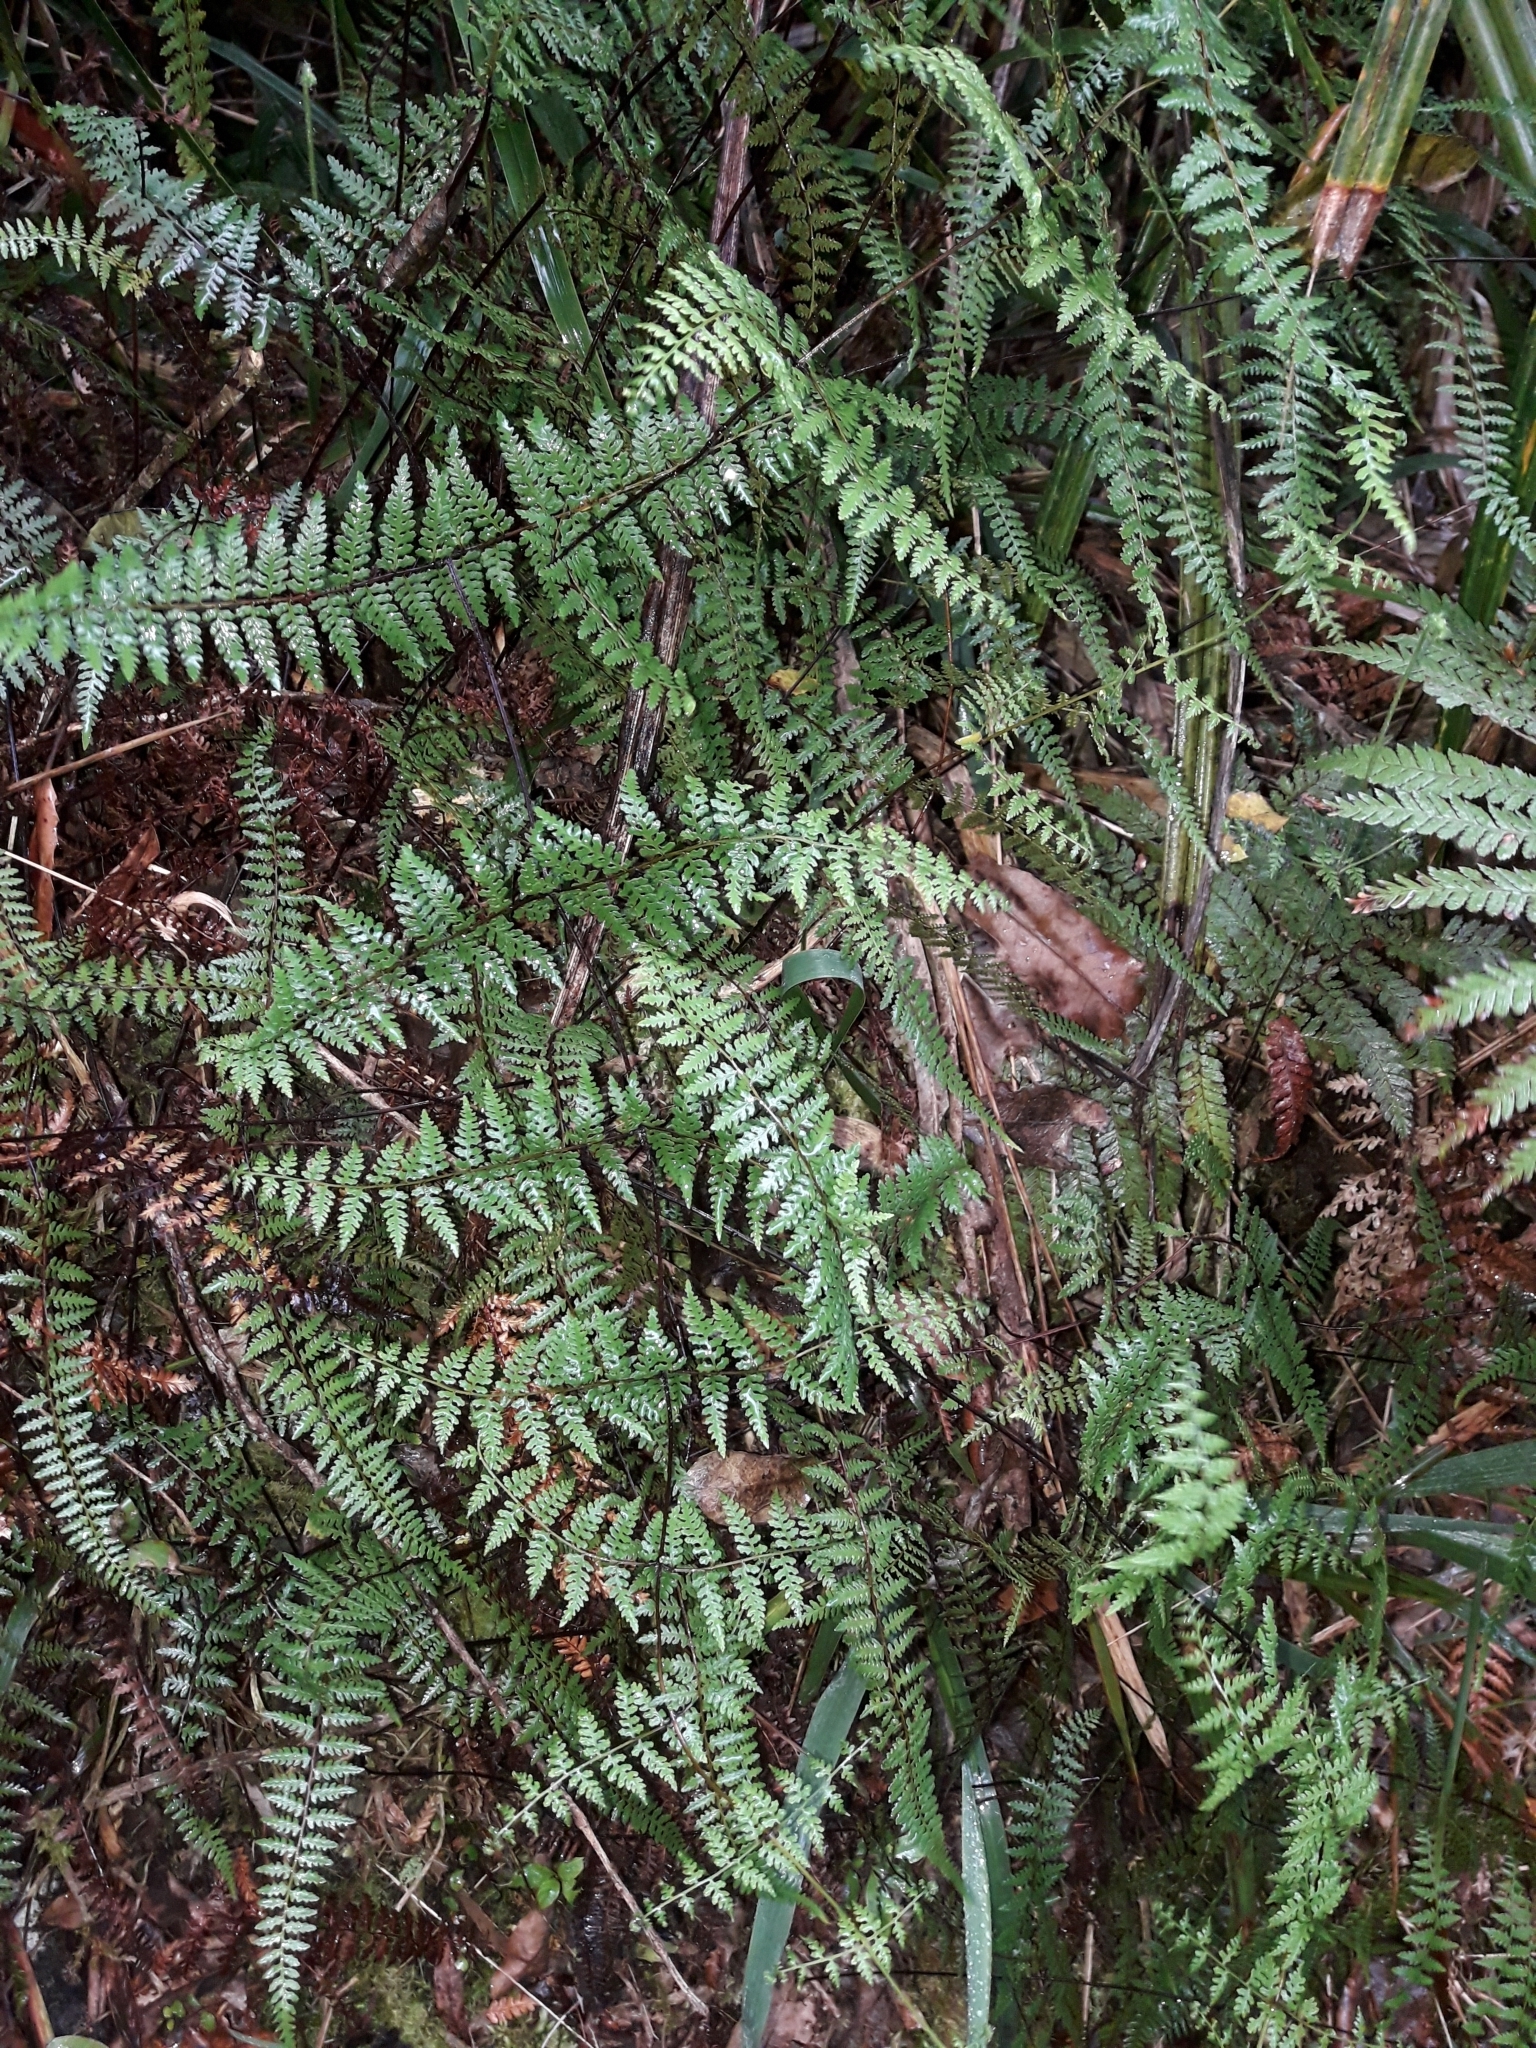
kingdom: Plantae
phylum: Tracheophyta
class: Polypodiopsida
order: Polypodiales
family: Dennstaedtiaceae
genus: Hiya
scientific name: Hiya distans
